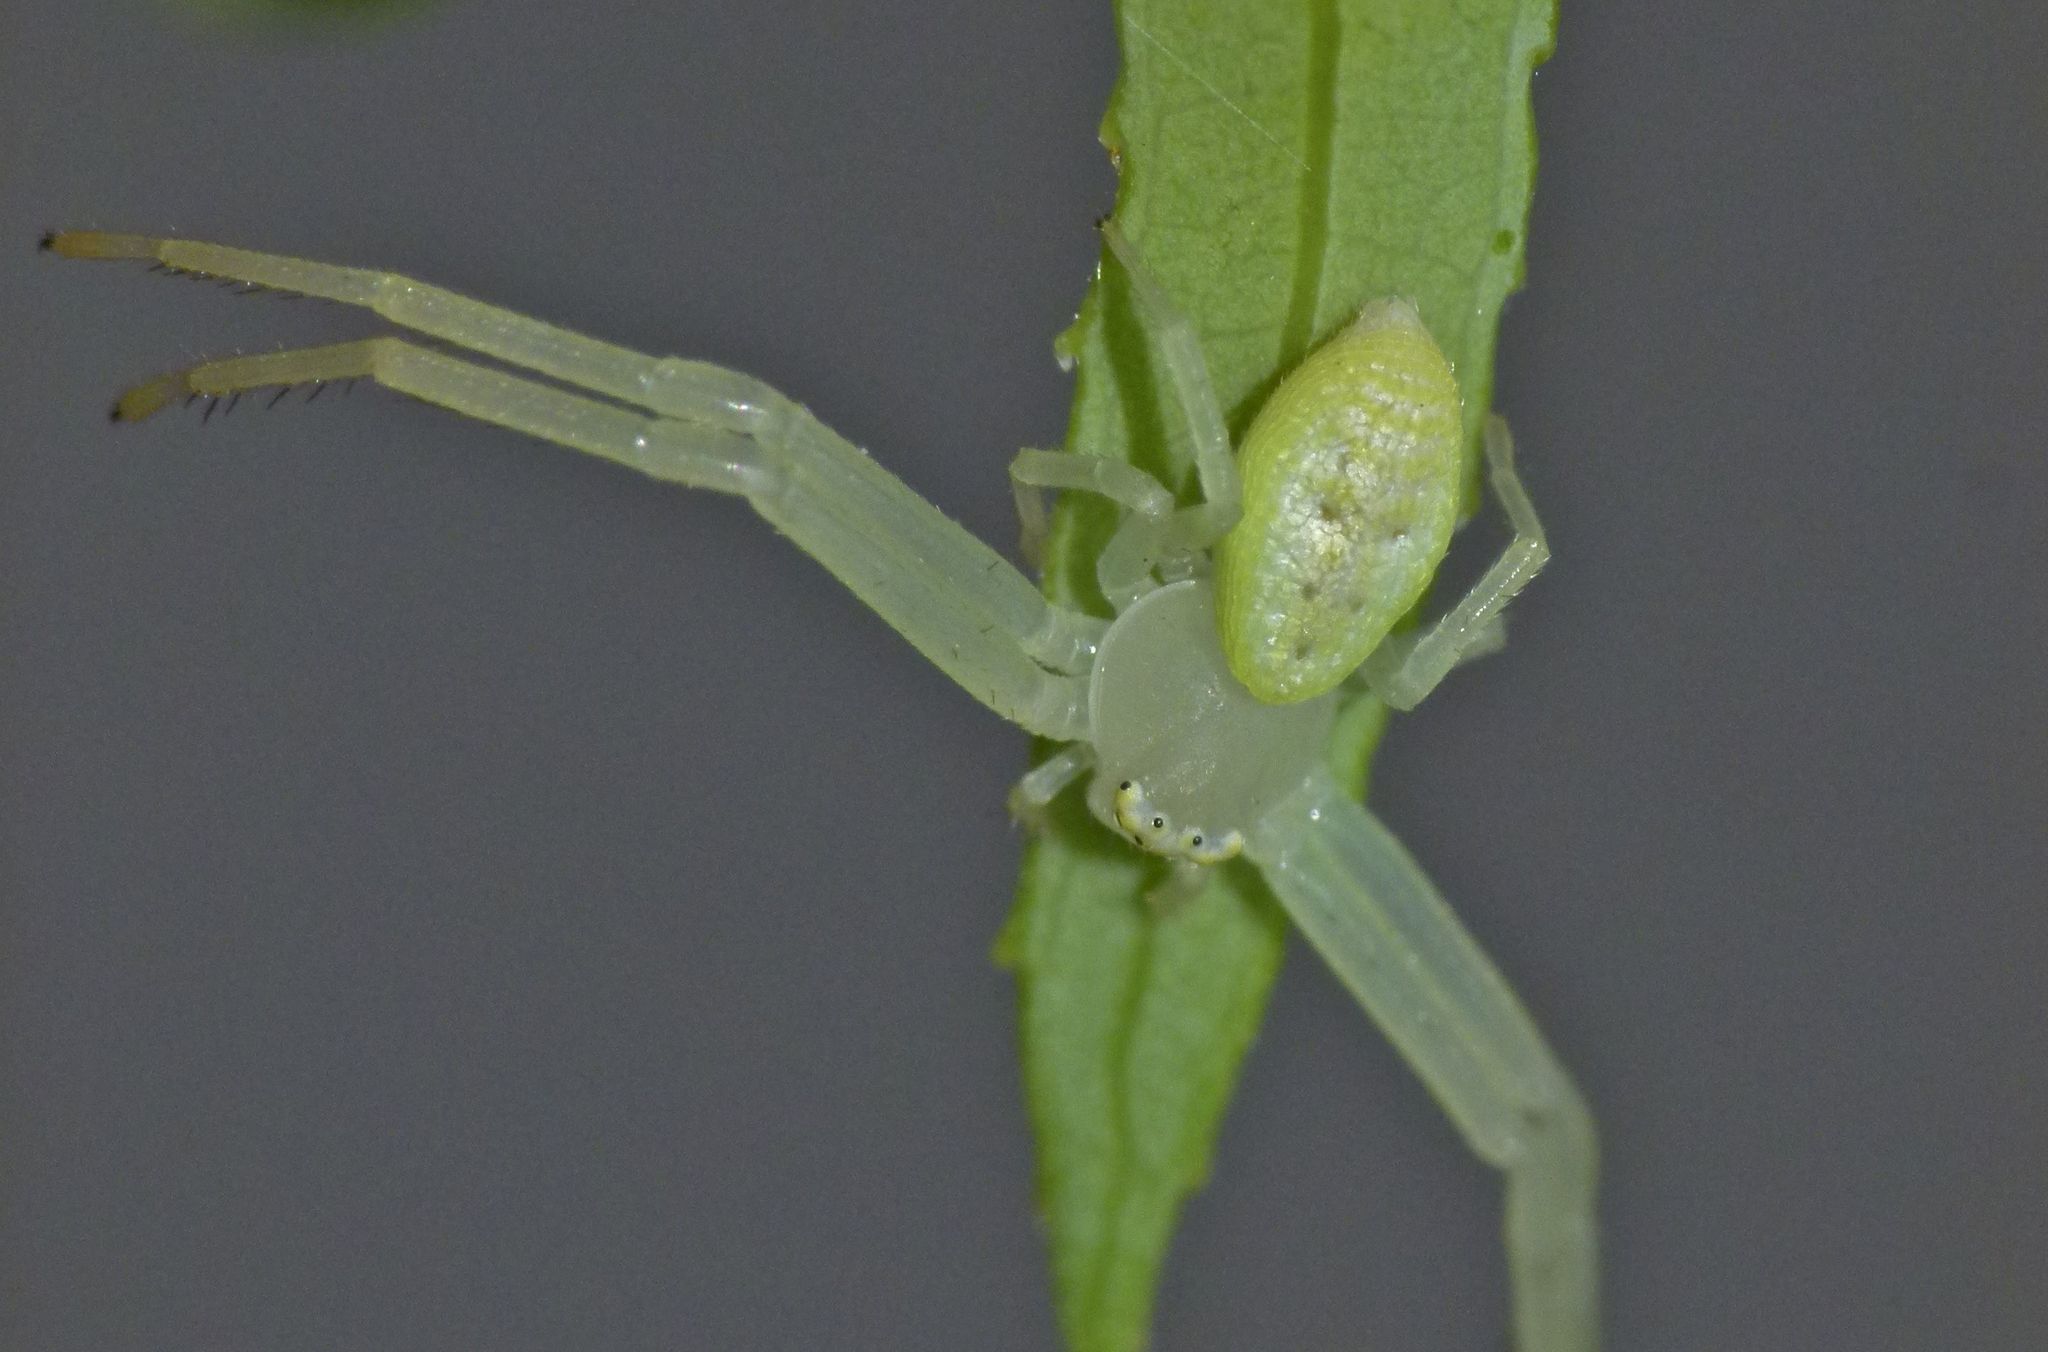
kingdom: Animalia
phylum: Arthropoda
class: Arachnida
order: Araneae
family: Thomisidae
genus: Misumessus
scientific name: Misumessus oblongus
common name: American green crab spider
